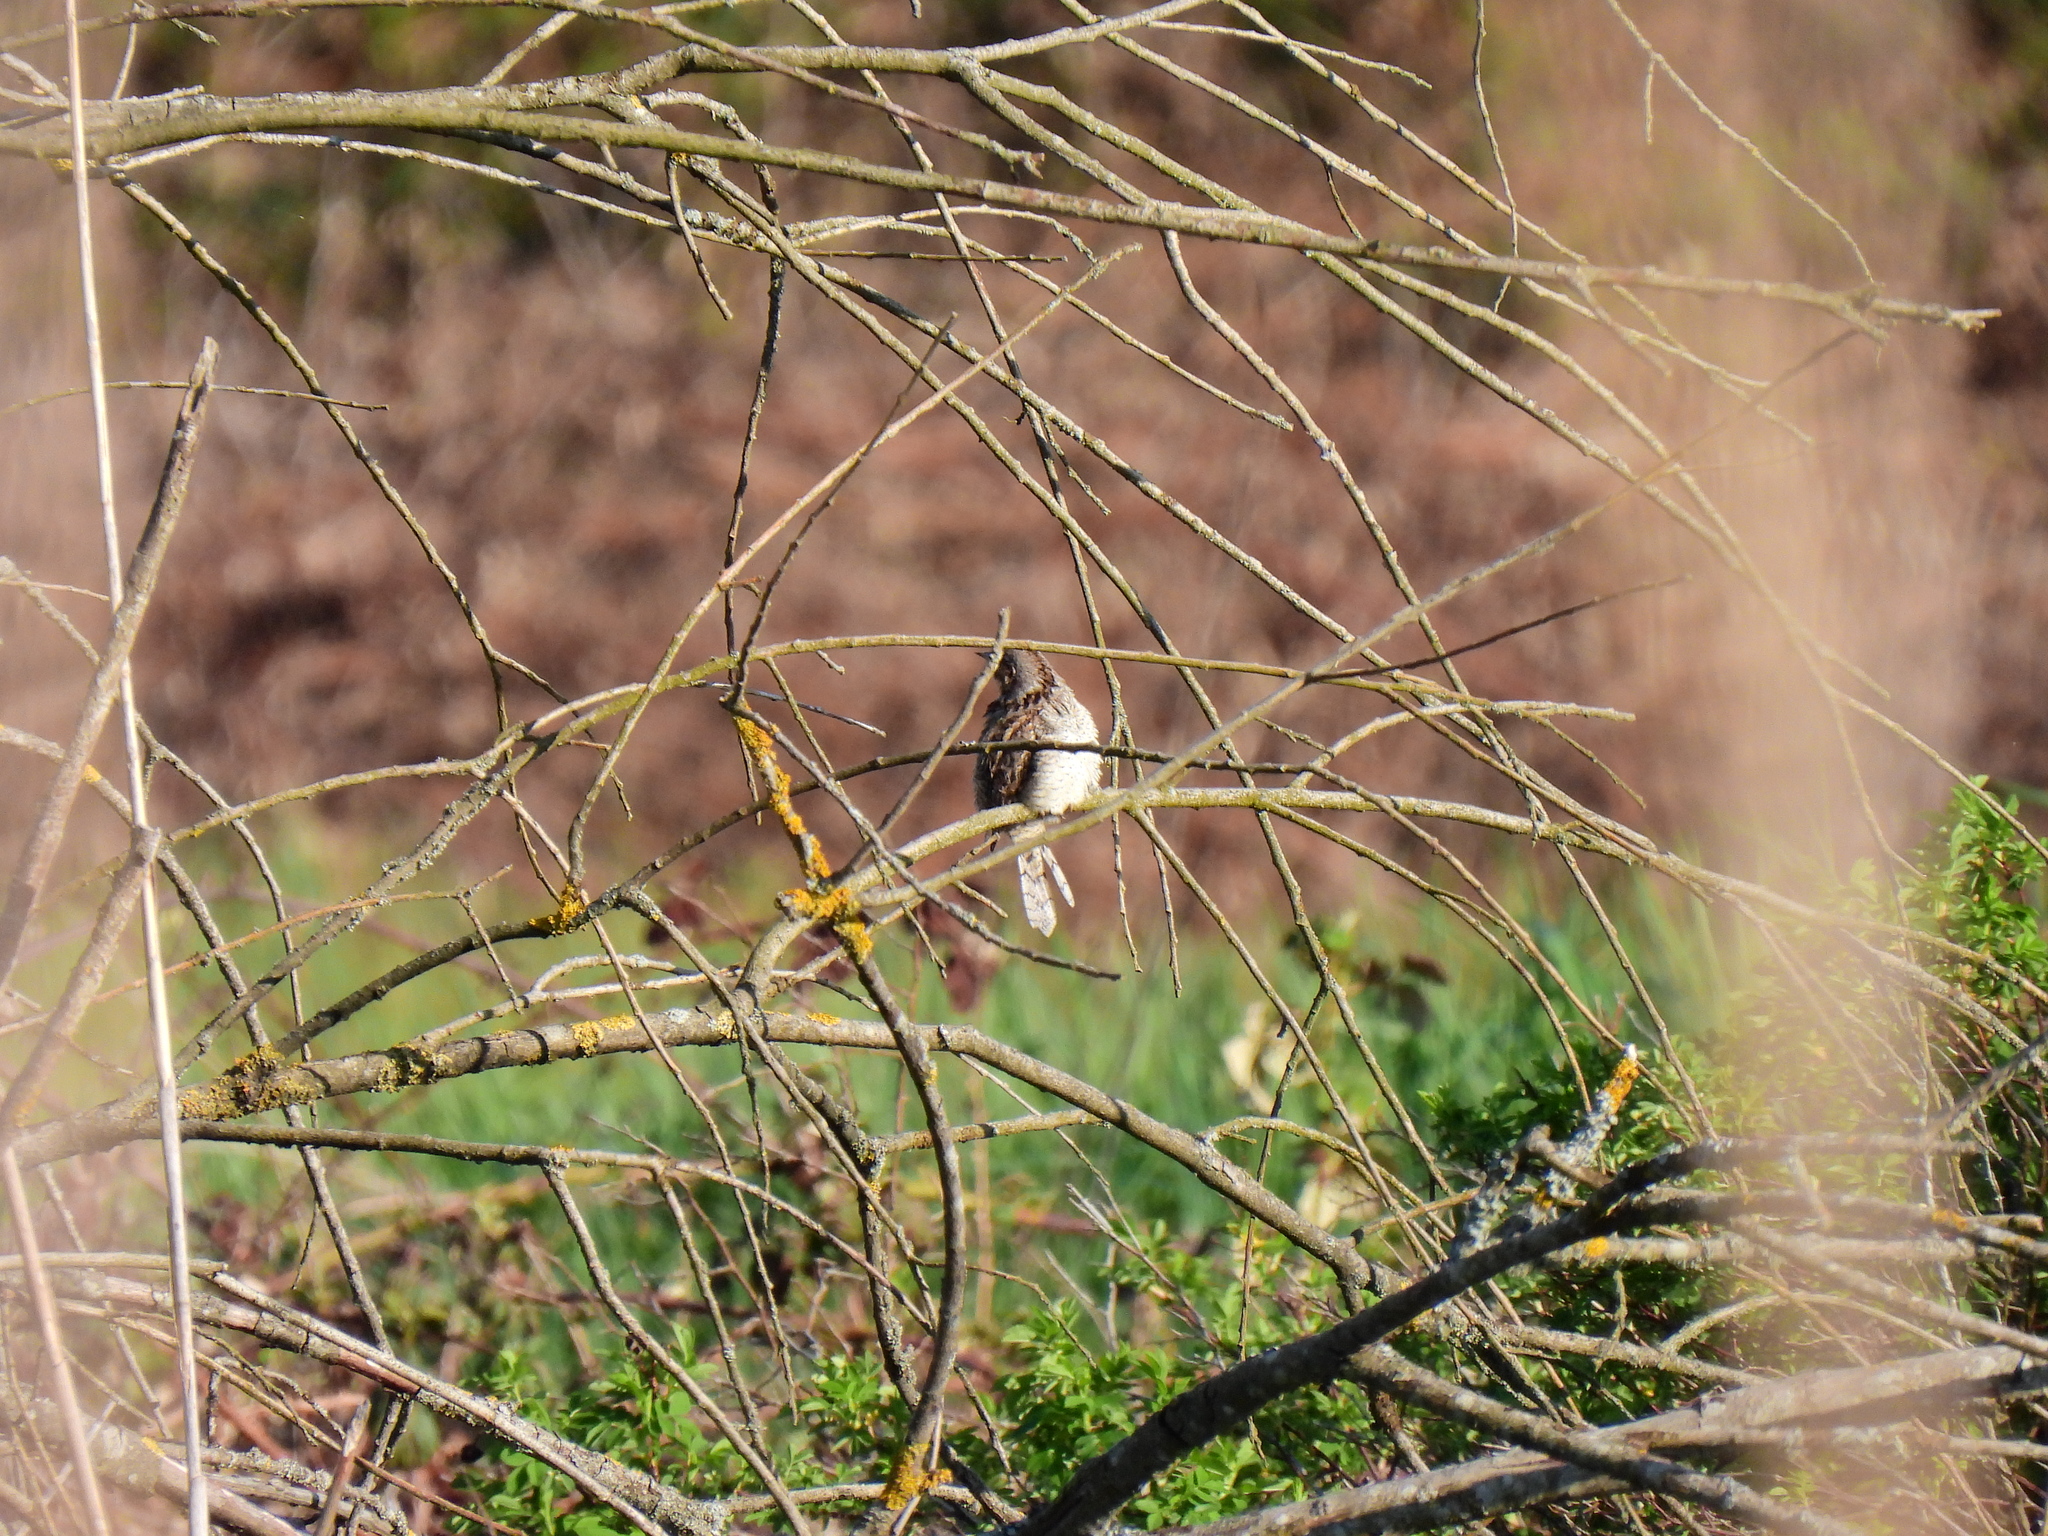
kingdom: Animalia
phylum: Chordata
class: Aves
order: Piciformes
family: Picidae
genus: Jynx
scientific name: Jynx torquilla
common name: Eurasian wryneck
